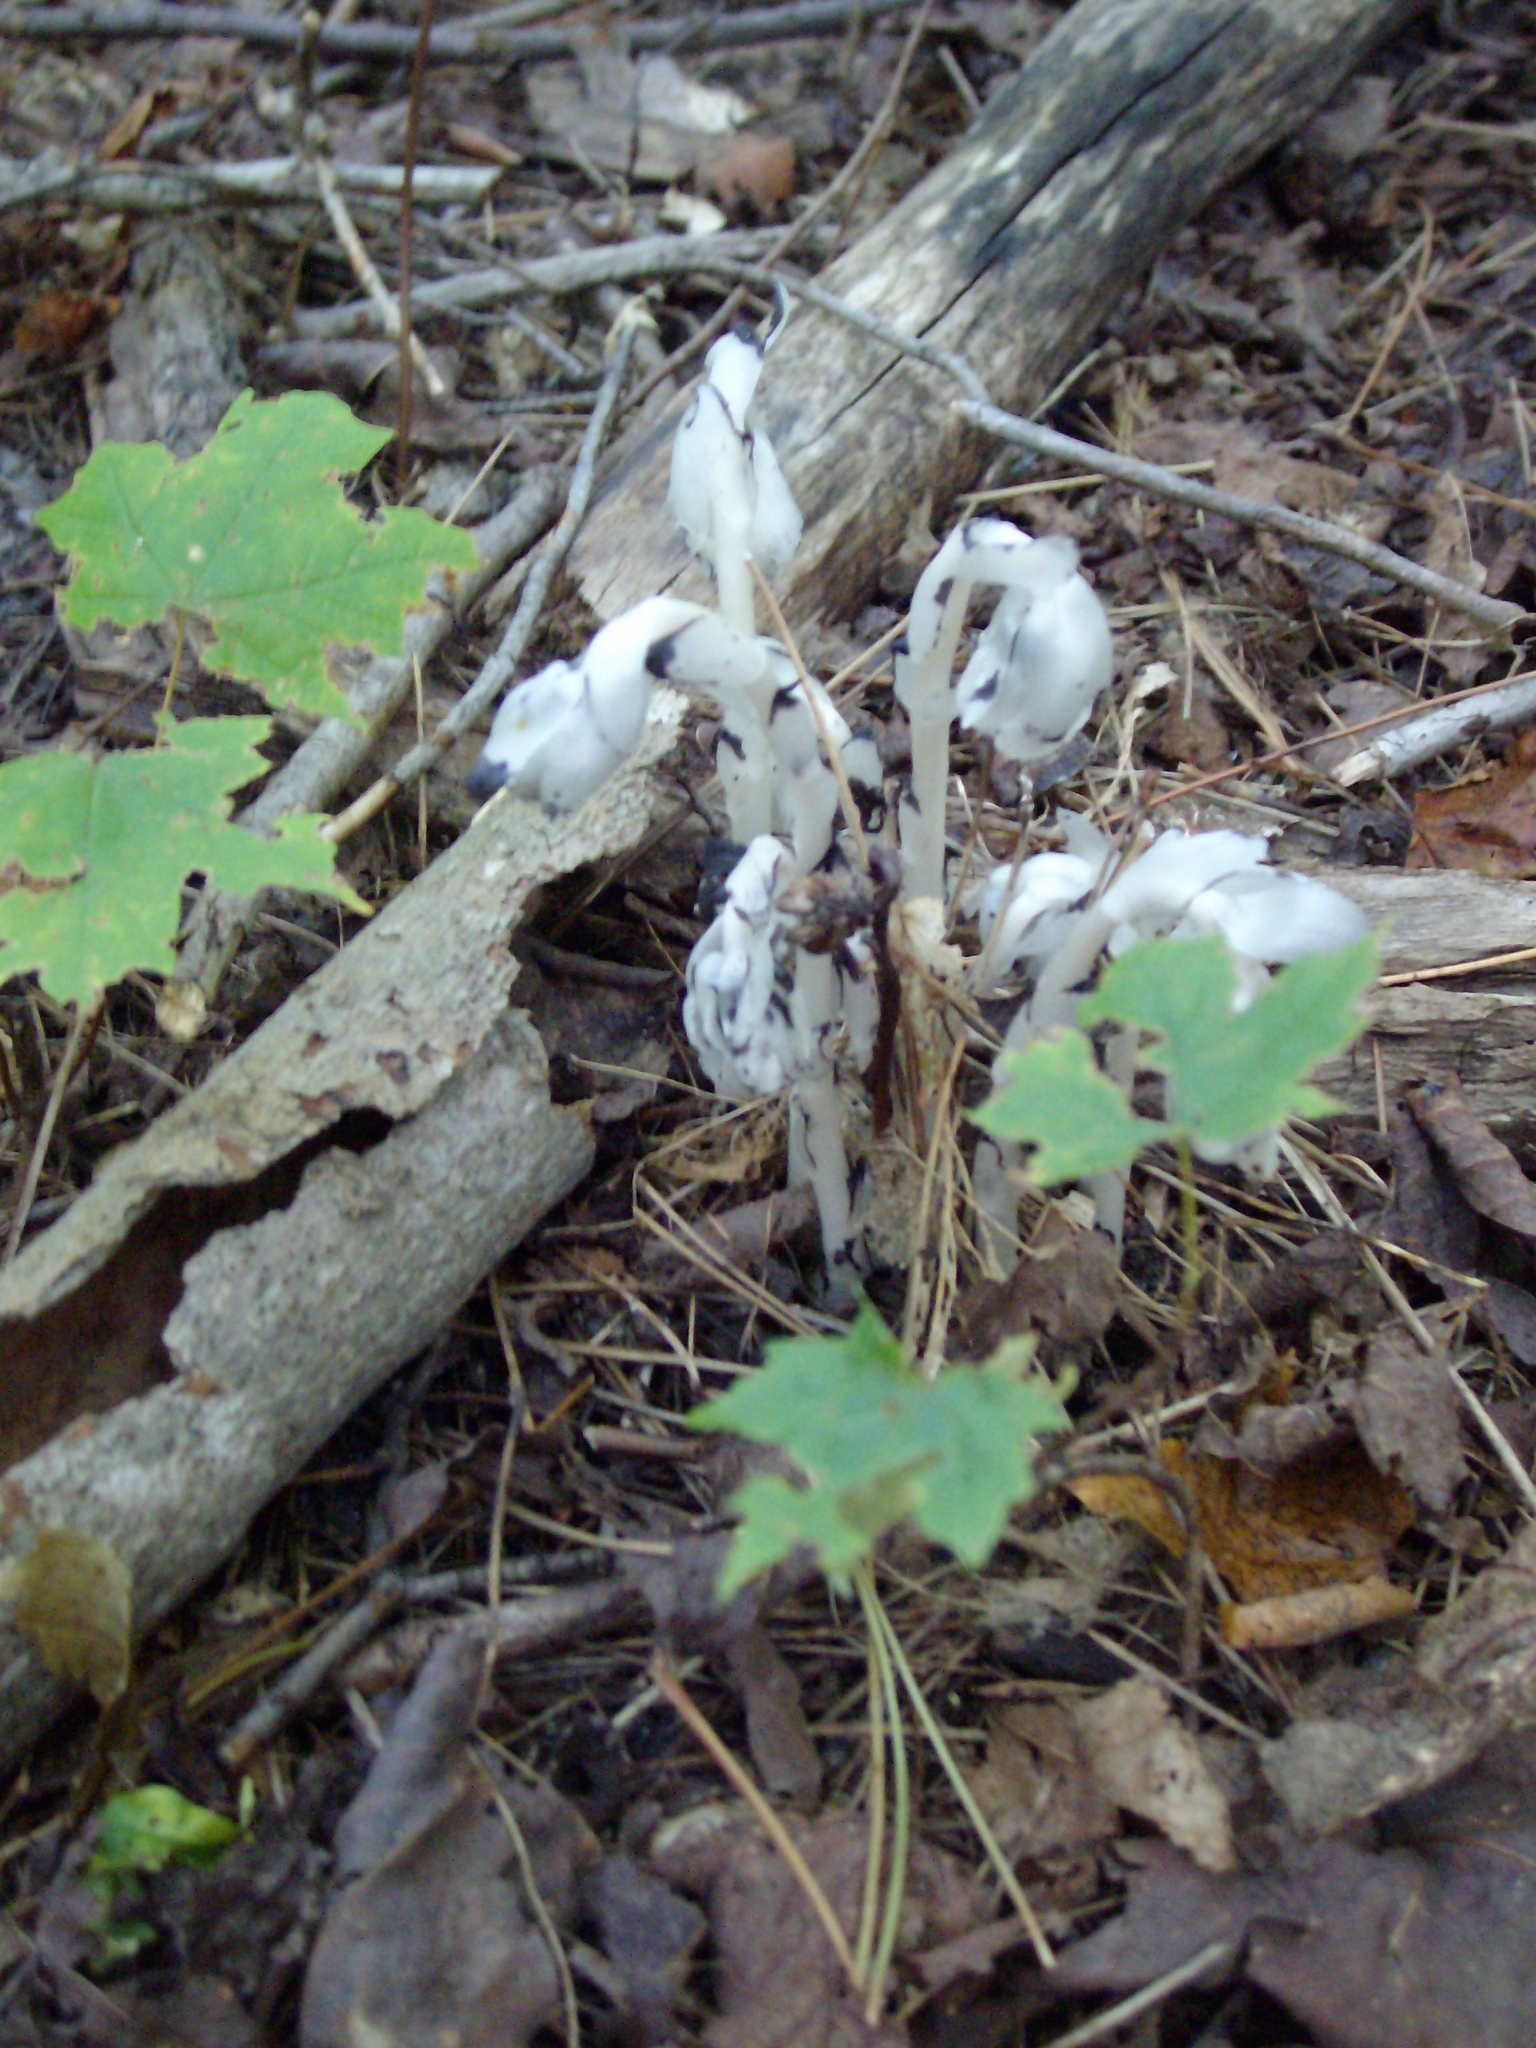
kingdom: Plantae
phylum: Tracheophyta
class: Magnoliopsida
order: Ericales
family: Ericaceae
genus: Monotropa
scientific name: Monotropa uniflora
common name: Convulsion root
